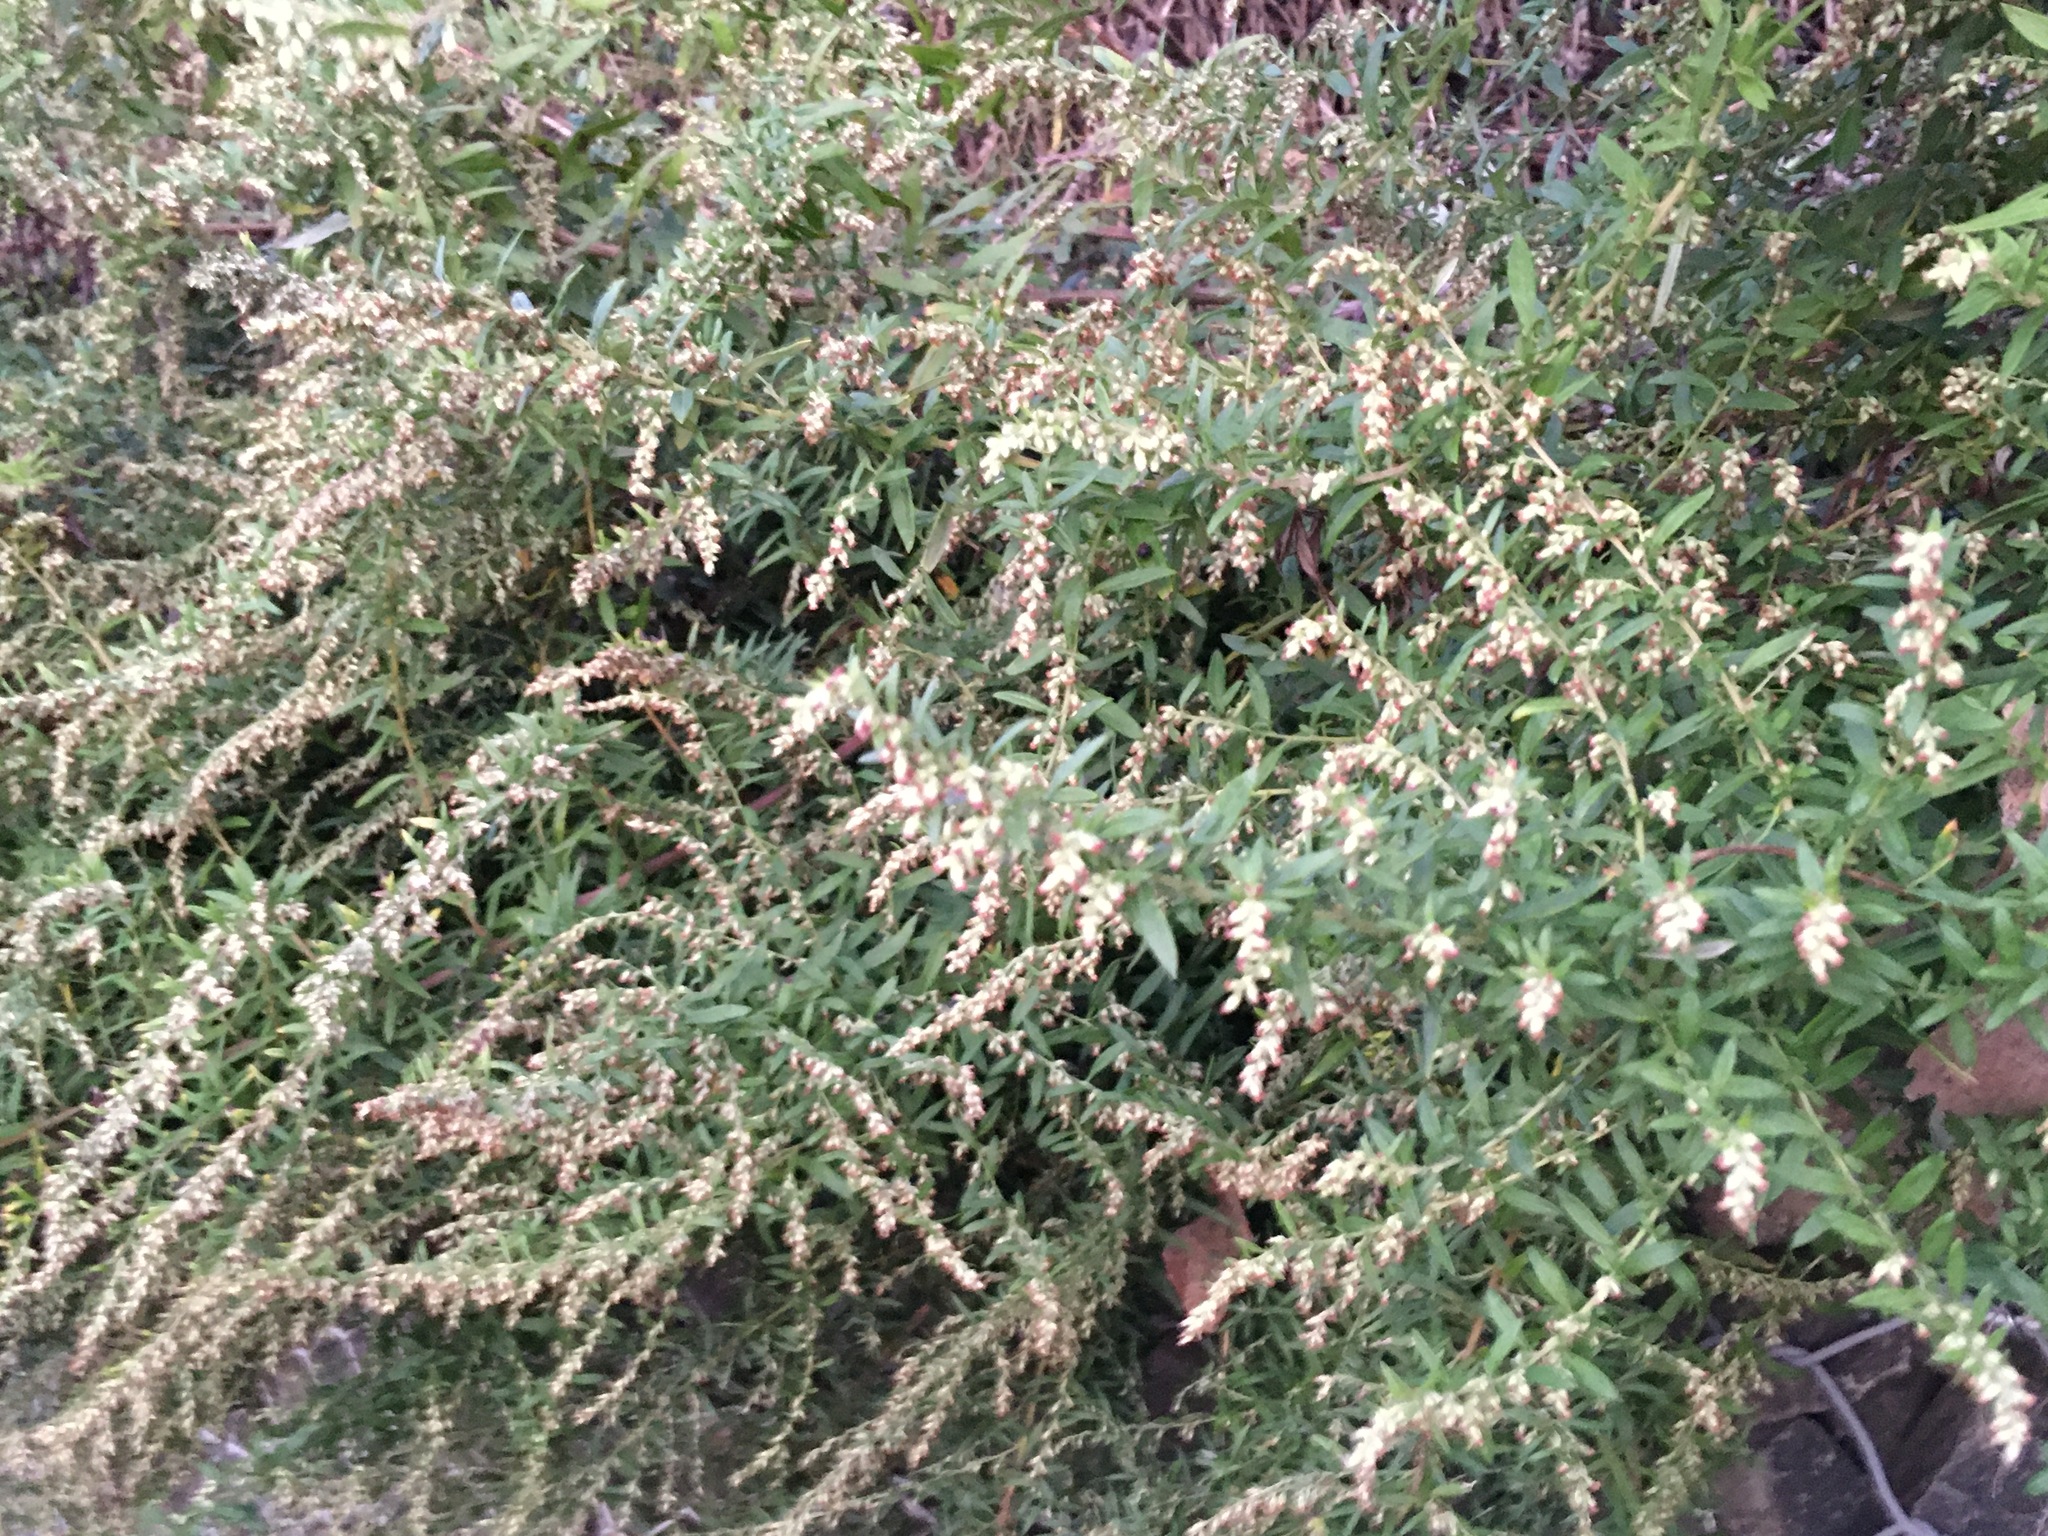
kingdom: Plantae
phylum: Tracheophyta
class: Magnoliopsida
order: Asterales
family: Asteraceae
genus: Artemisia
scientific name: Artemisia vulgaris
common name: Mugwort
